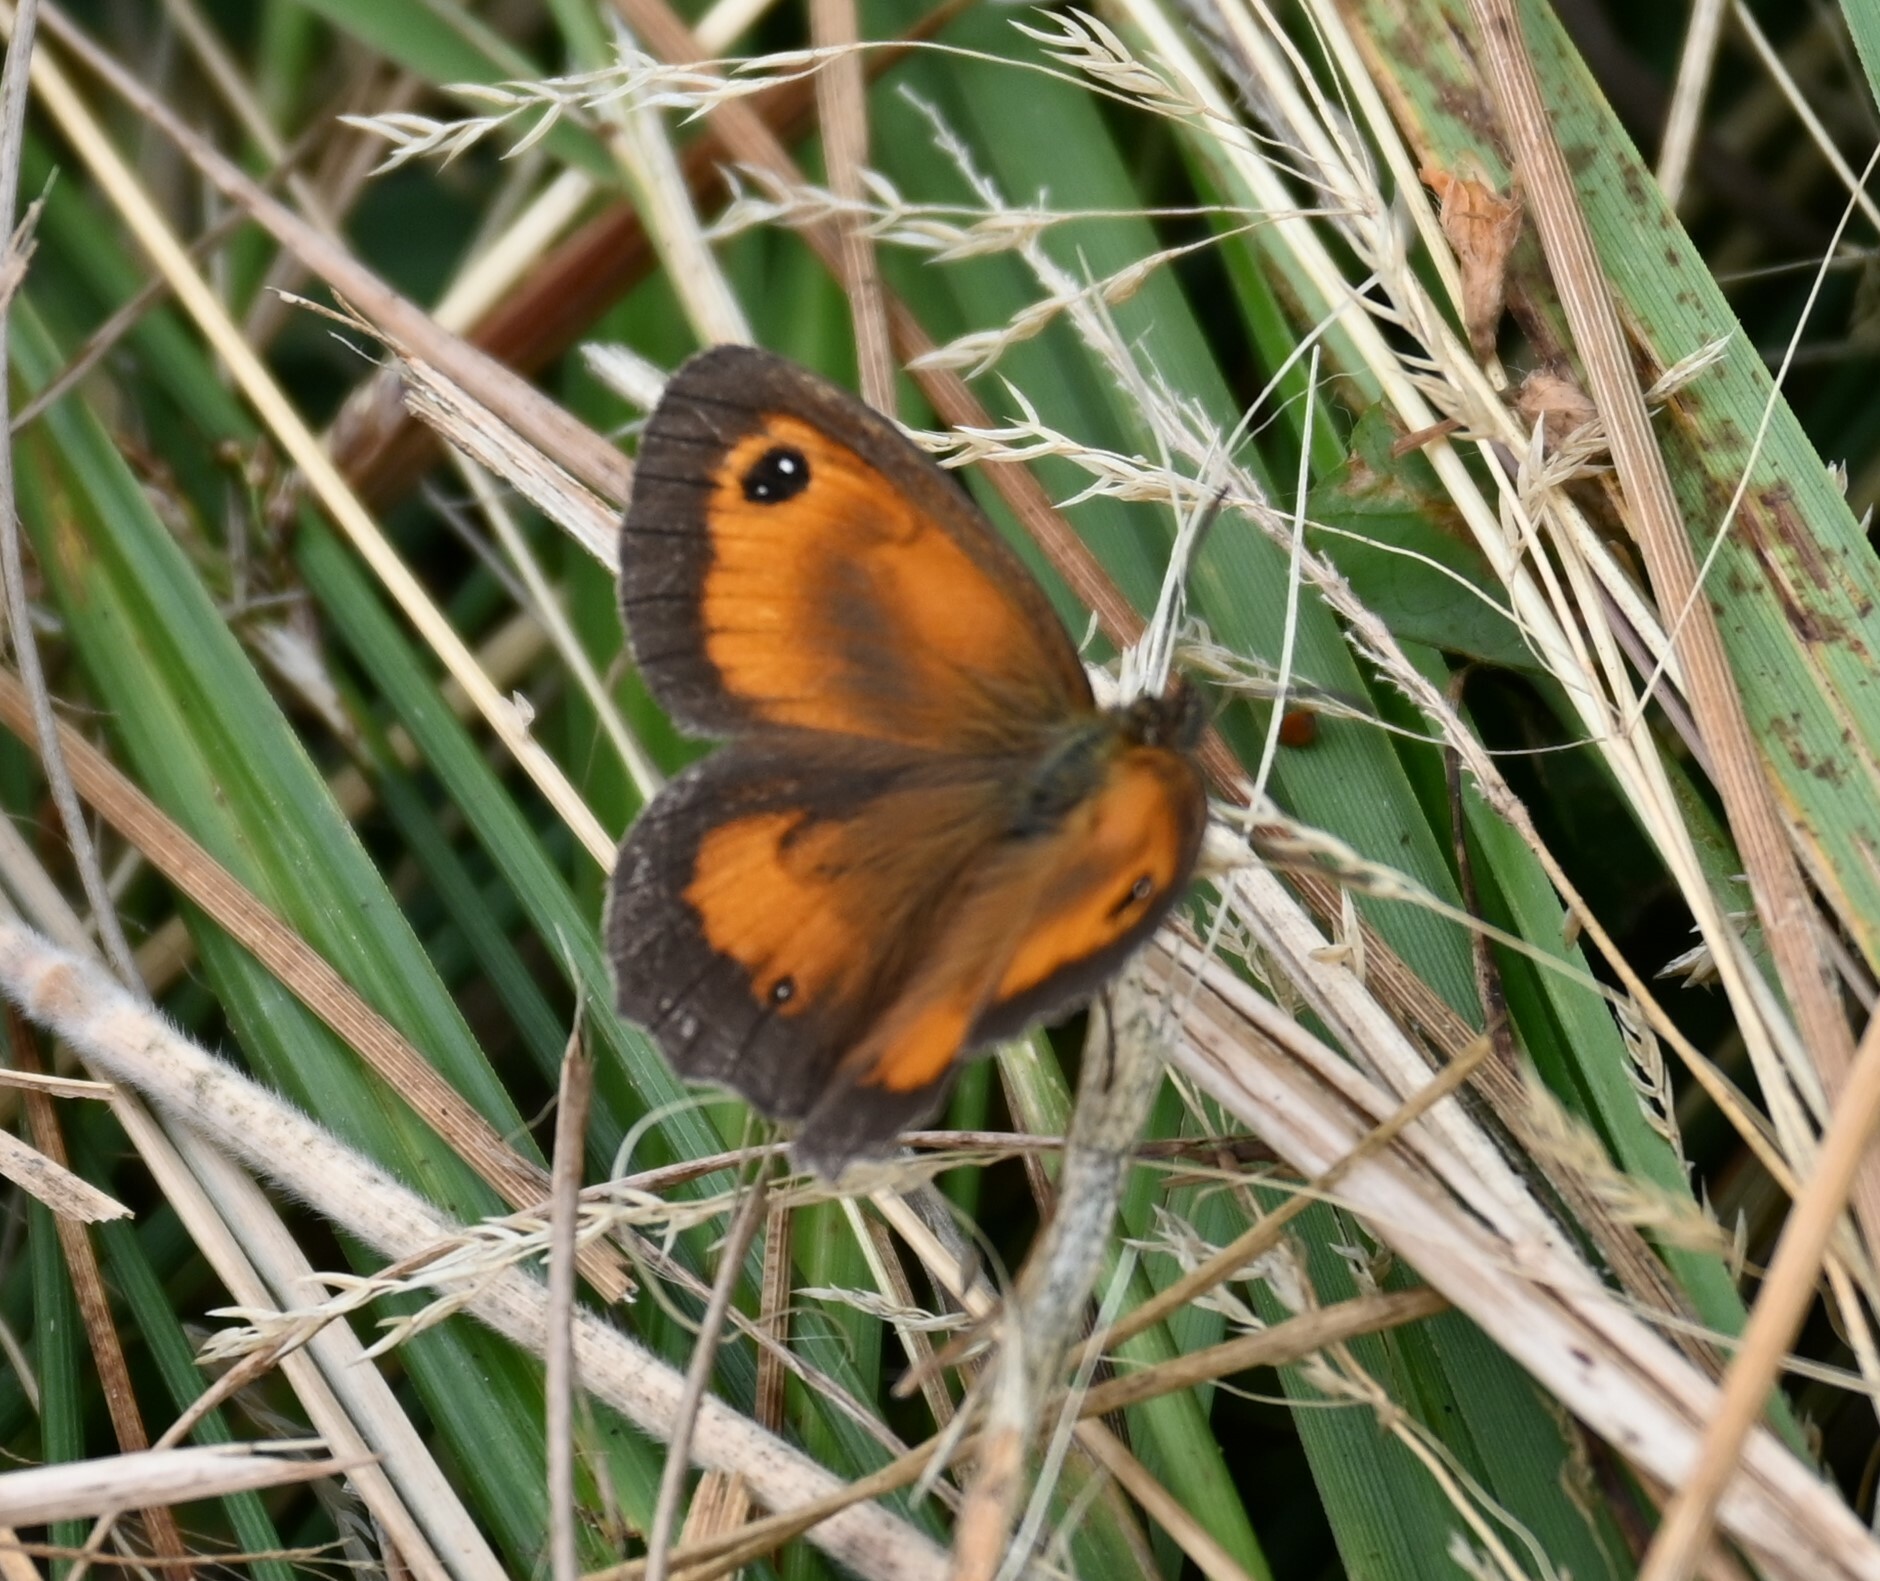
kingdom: Animalia
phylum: Arthropoda
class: Insecta
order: Lepidoptera
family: Nymphalidae
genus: Pyronia
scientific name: Pyronia tithonus
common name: Gatekeeper
